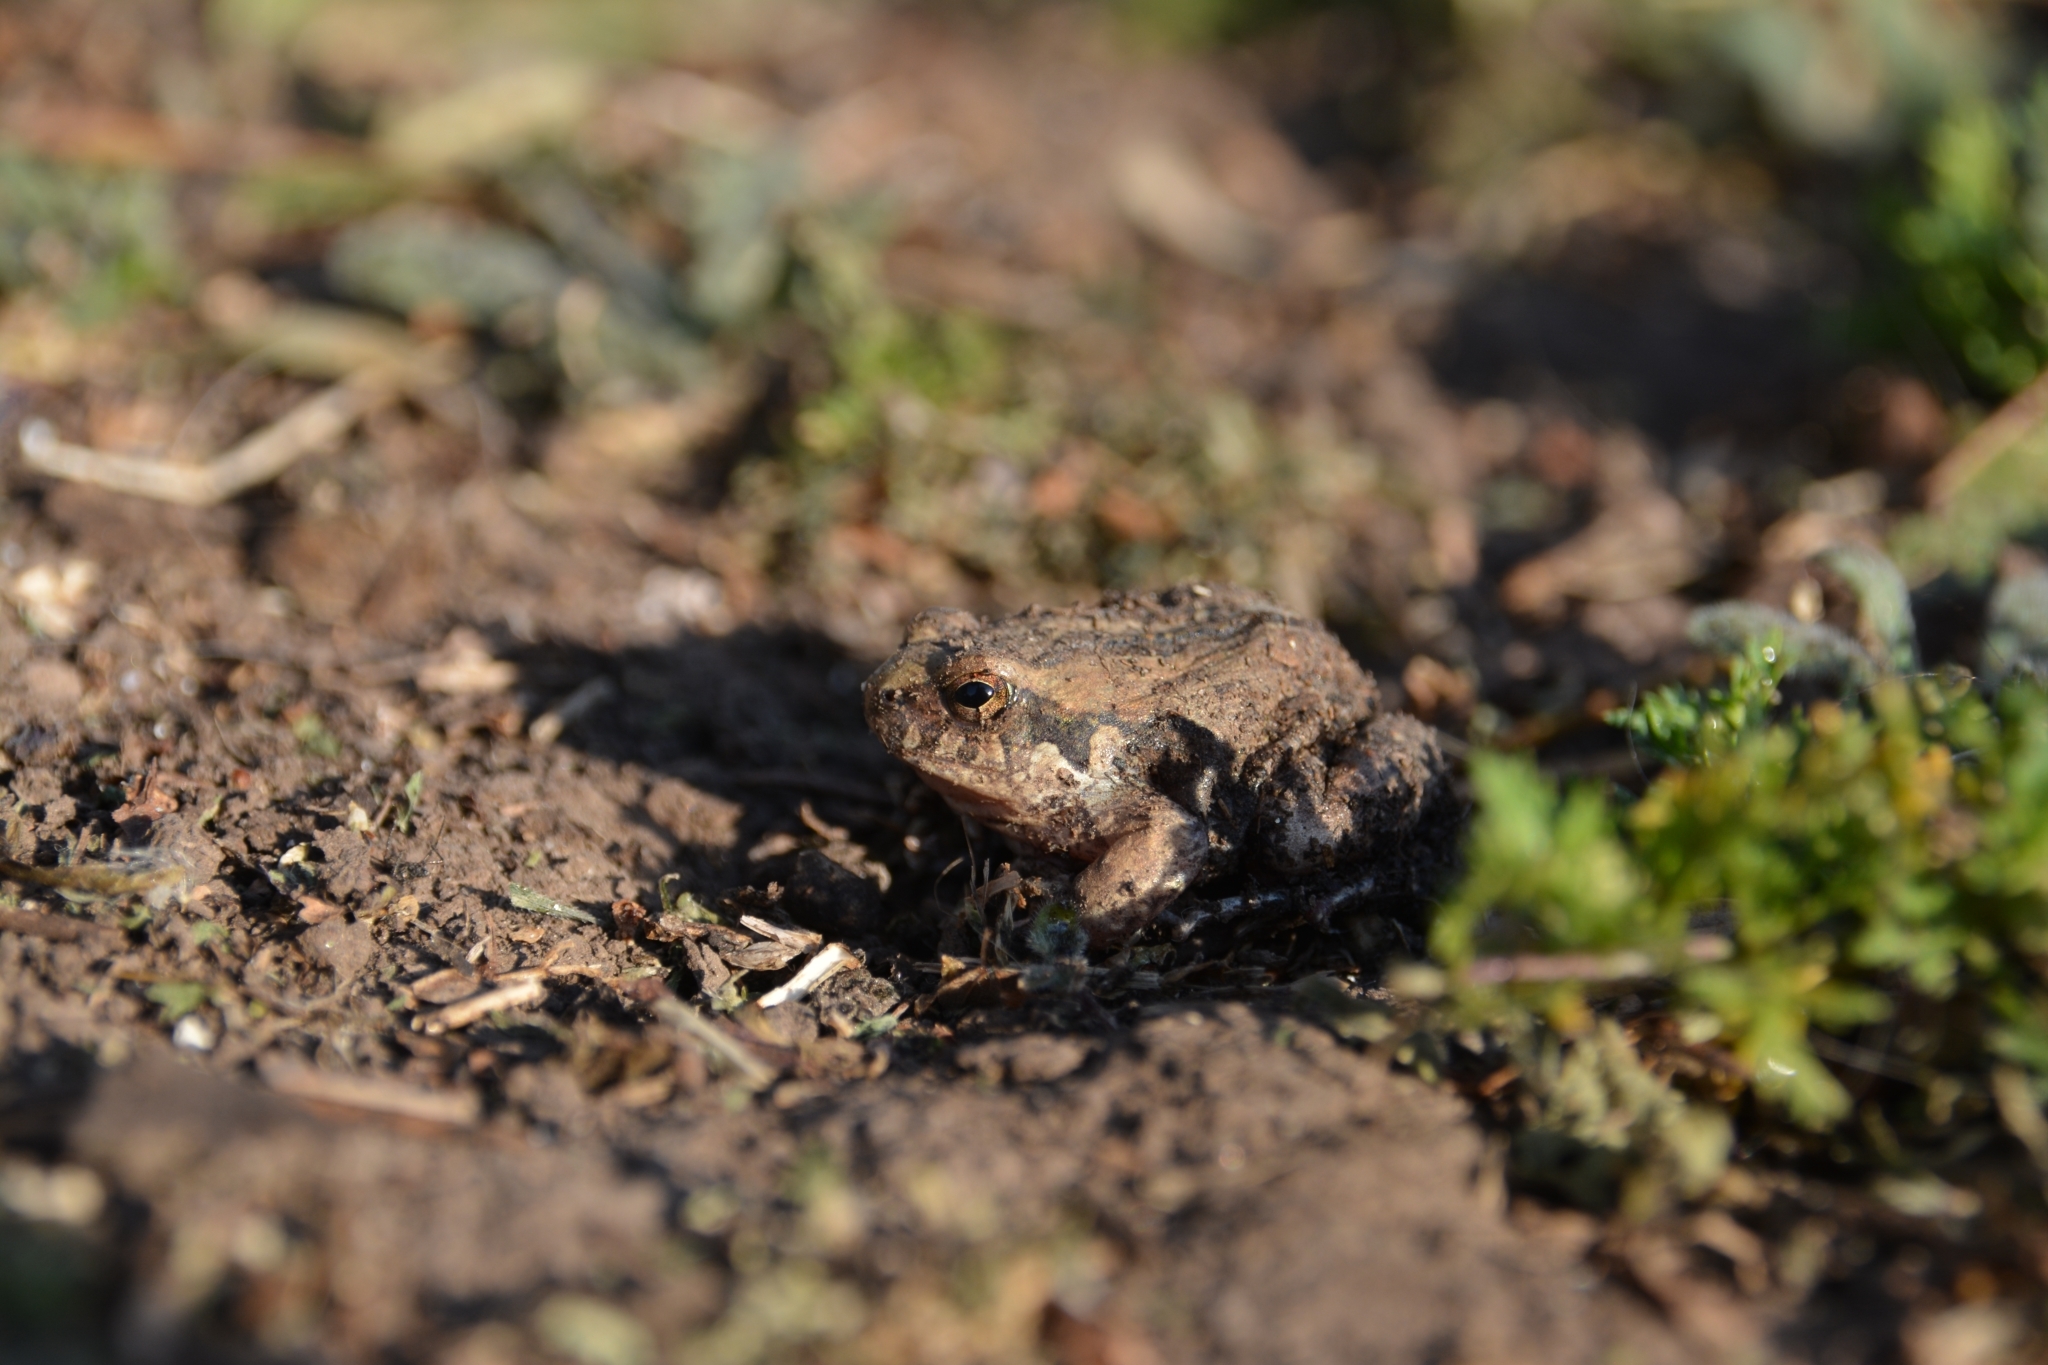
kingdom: Animalia
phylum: Chordata
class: Amphibia
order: Anura
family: Leptodactylidae
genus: Physalaemus
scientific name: Physalaemus biligonigerus
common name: Weeping frog
